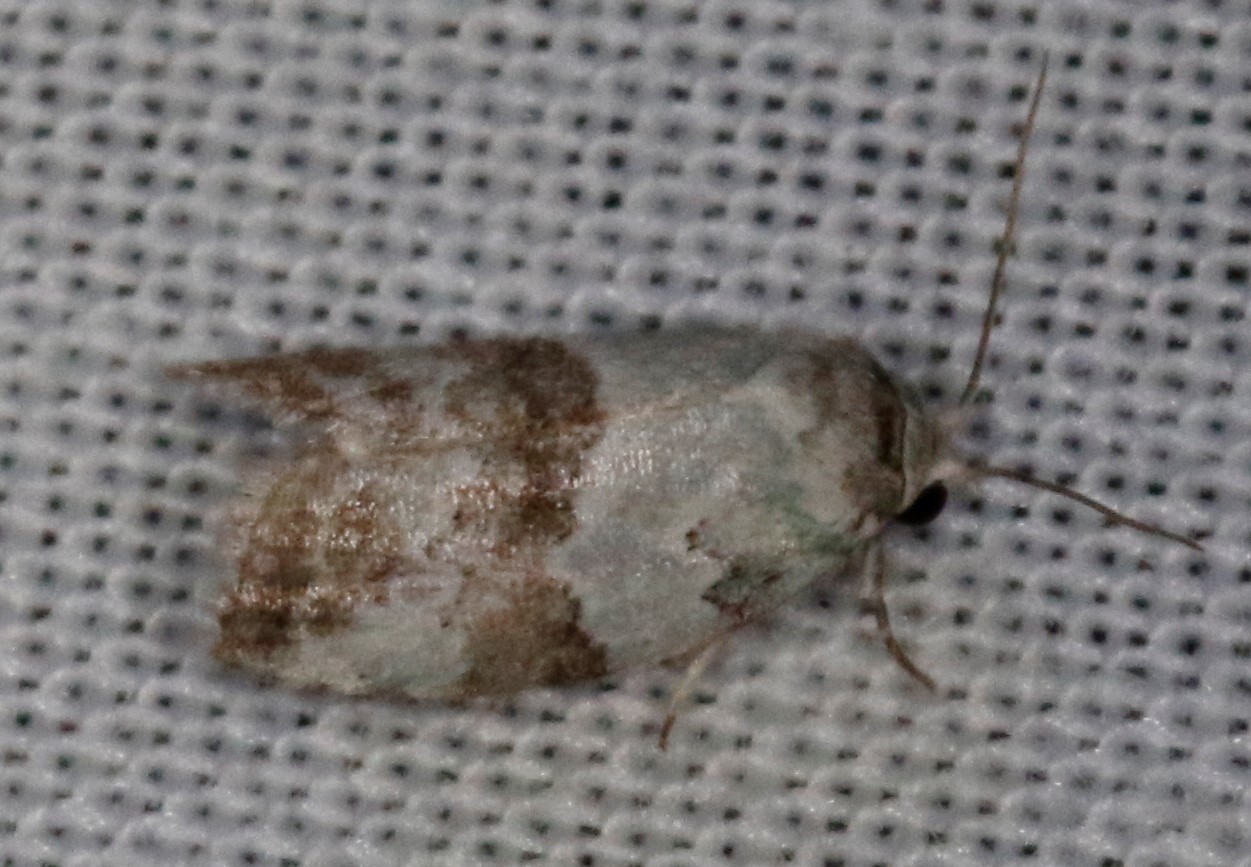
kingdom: Animalia
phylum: Arthropoda
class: Insecta
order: Lepidoptera
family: Nolidae
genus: Afrida
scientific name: Afrida ydatodes
